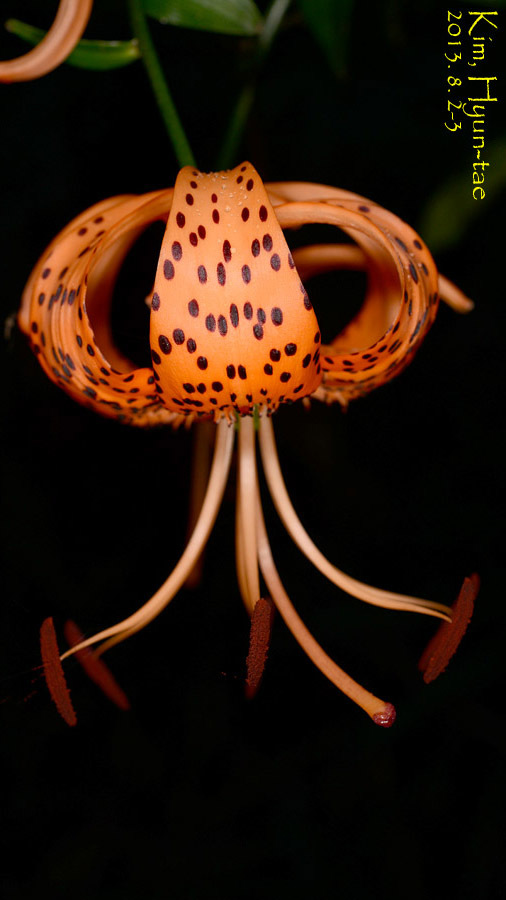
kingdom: Plantae
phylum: Tracheophyta
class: Liliopsida
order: Liliales
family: Liliaceae
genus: Lilium
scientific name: Lilium lancifolium
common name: Tiger lily
